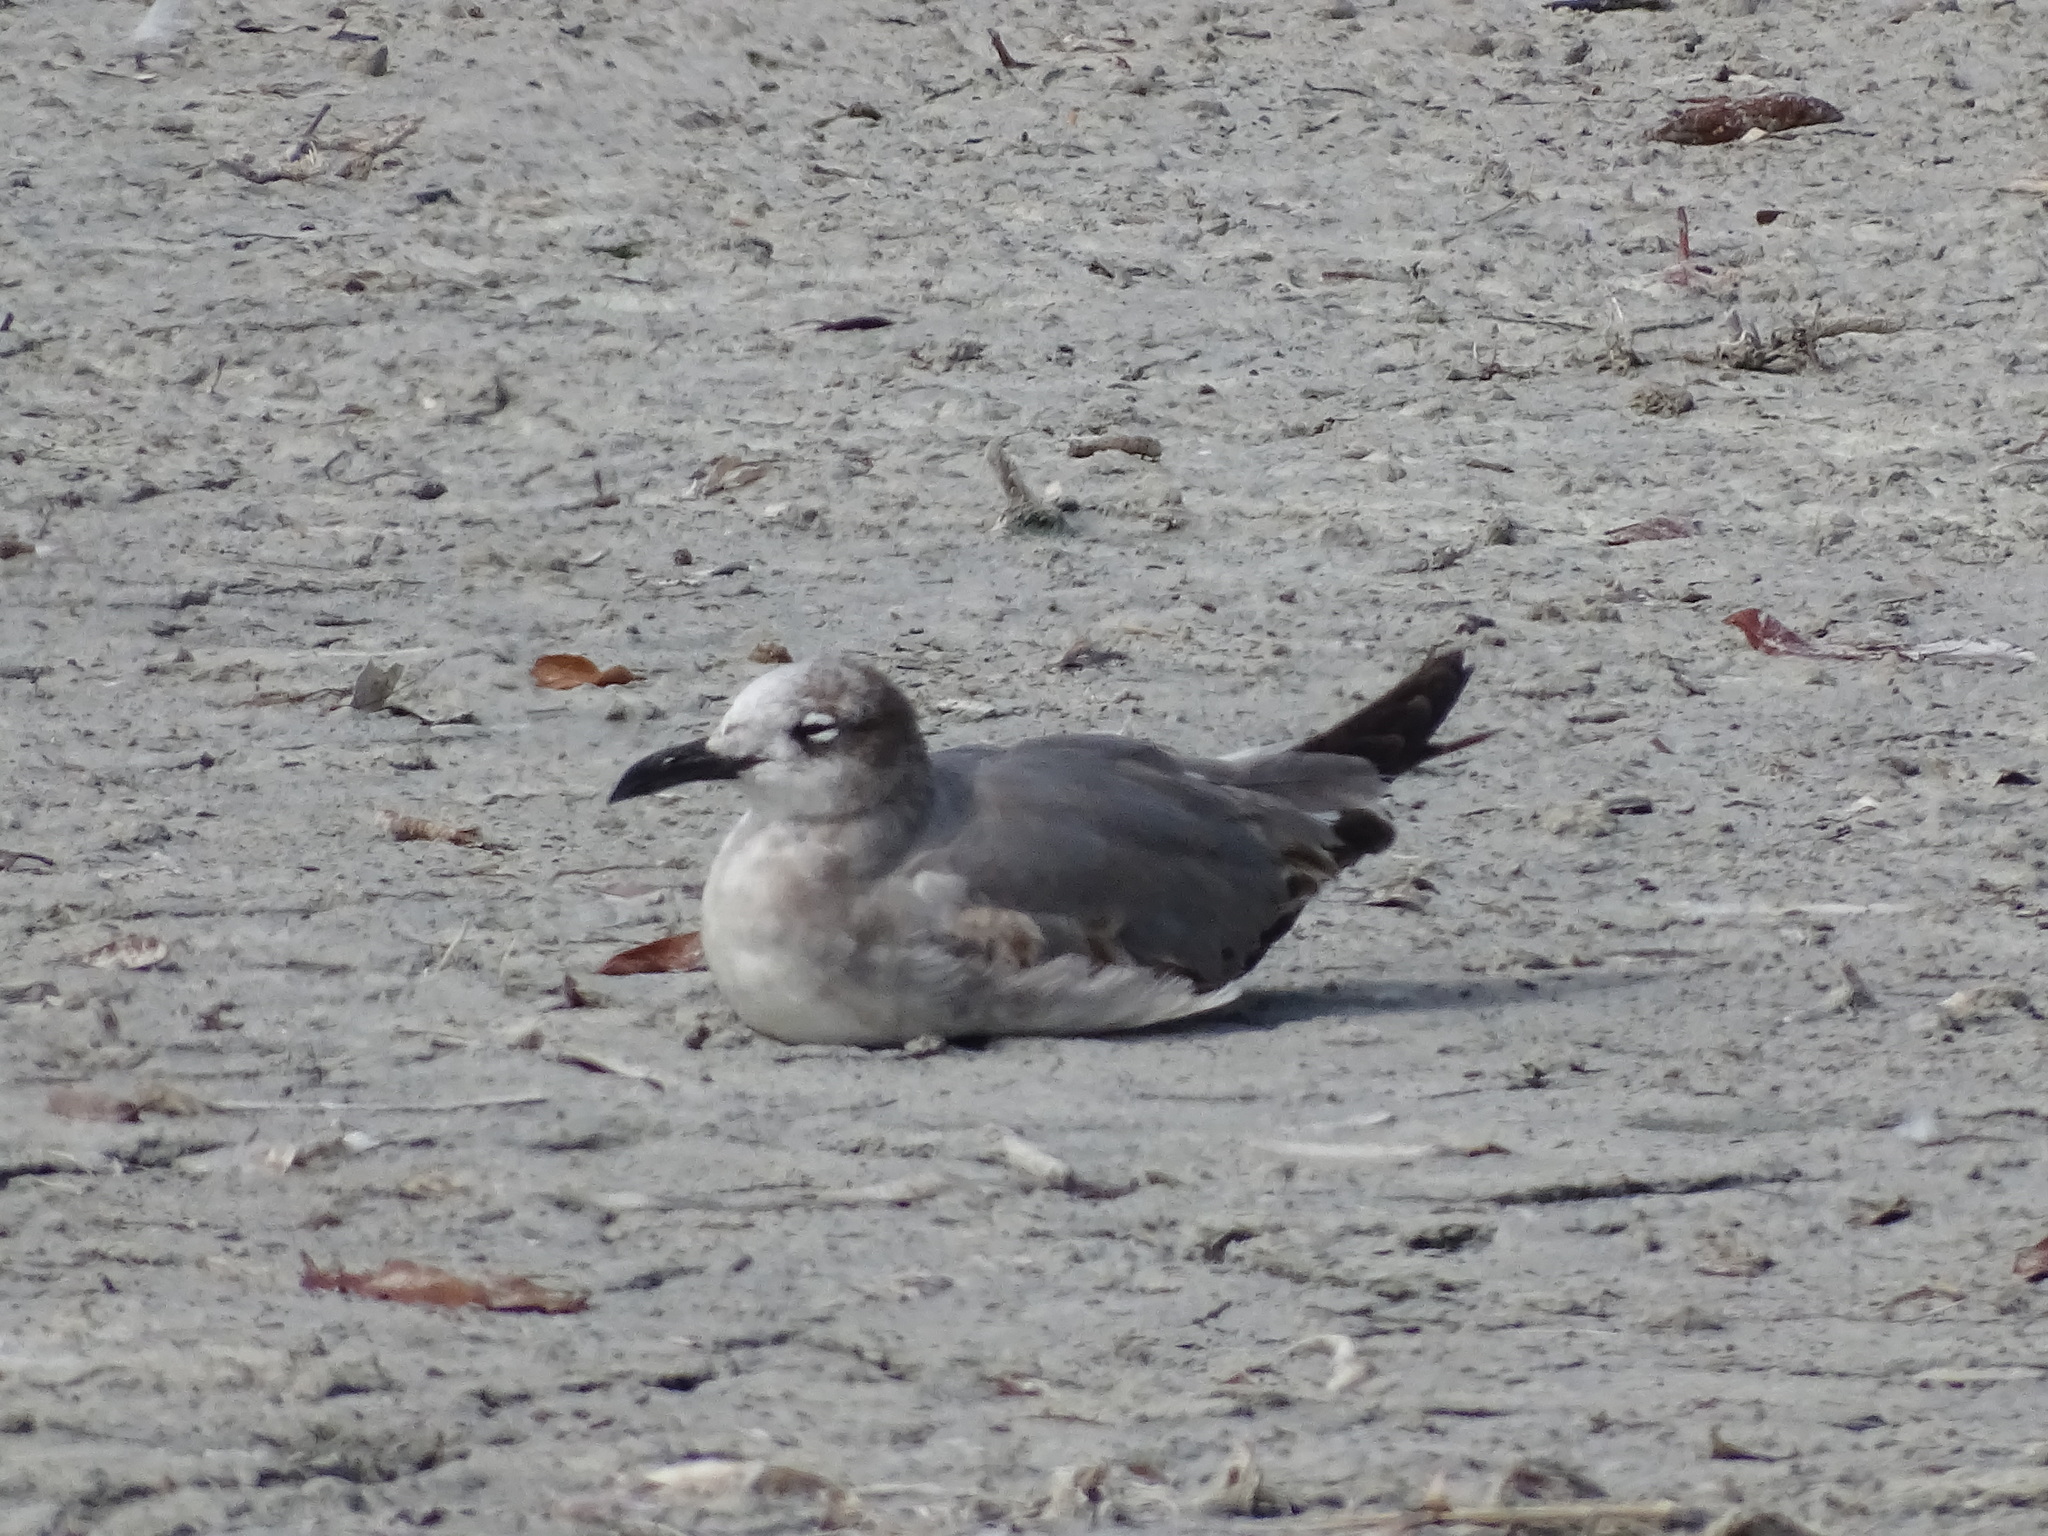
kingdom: Animalia
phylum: Chordata
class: Aves
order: Charadriiformes
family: Laridae
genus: Leucophaeus
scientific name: Leucophaeus atricilla
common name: Laughing gull
